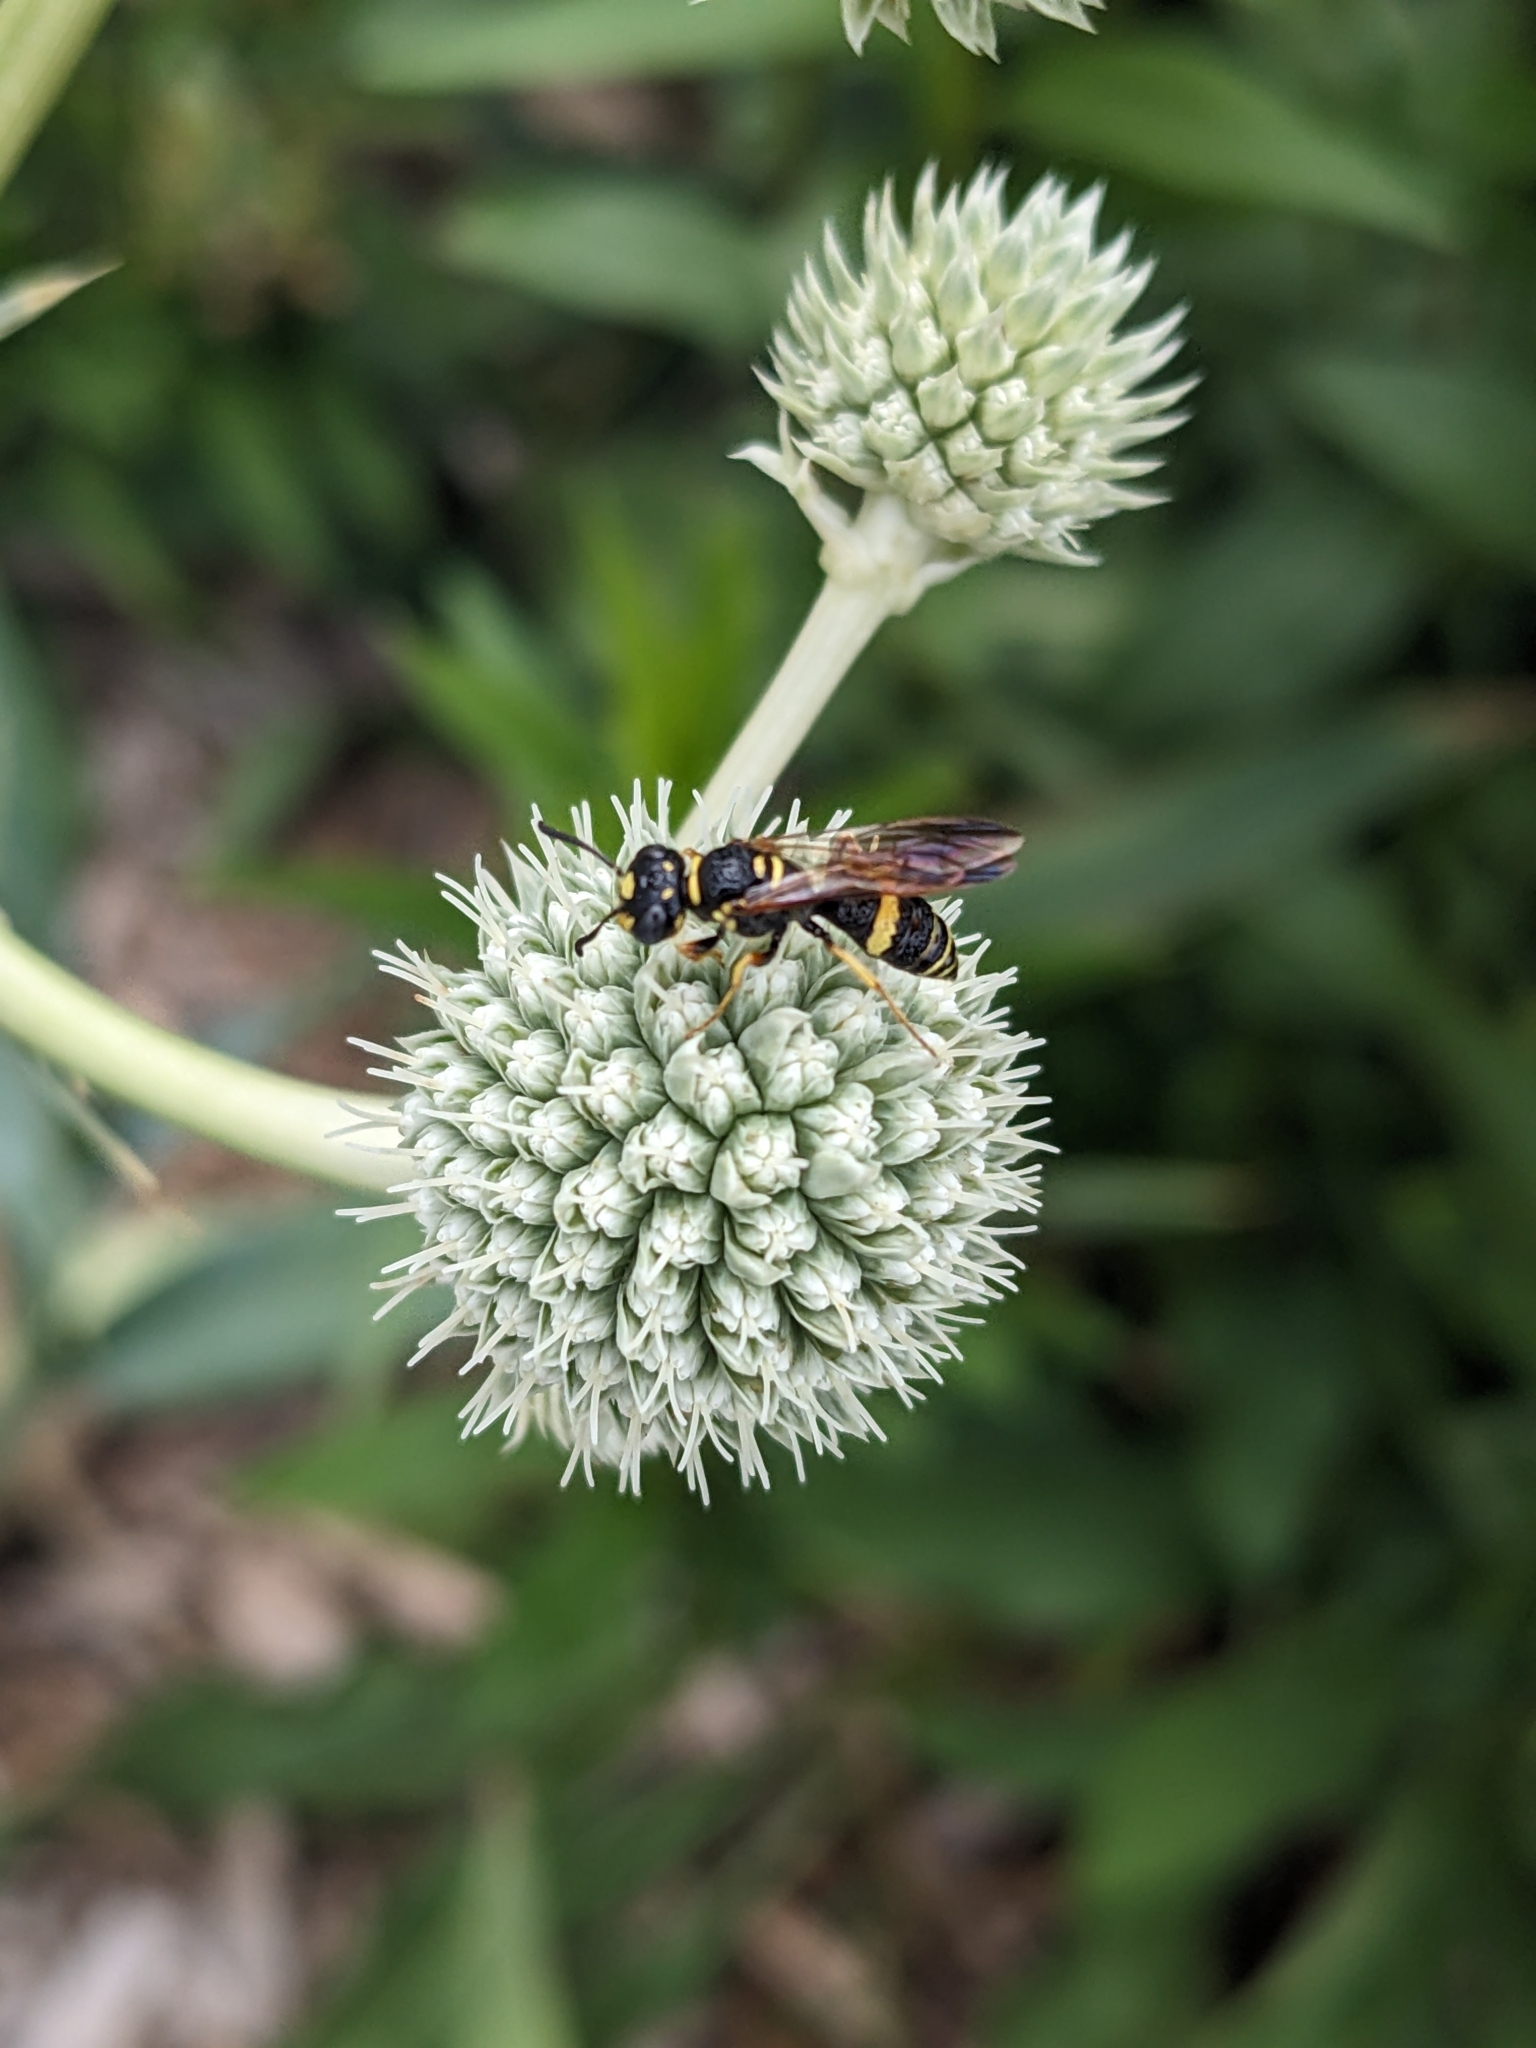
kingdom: Animalia
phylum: Arthropoda
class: Insecta
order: Hymenoptera
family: Crabronidae
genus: Philanthus
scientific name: Philanthus gibbosus
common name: Humped beewolf
